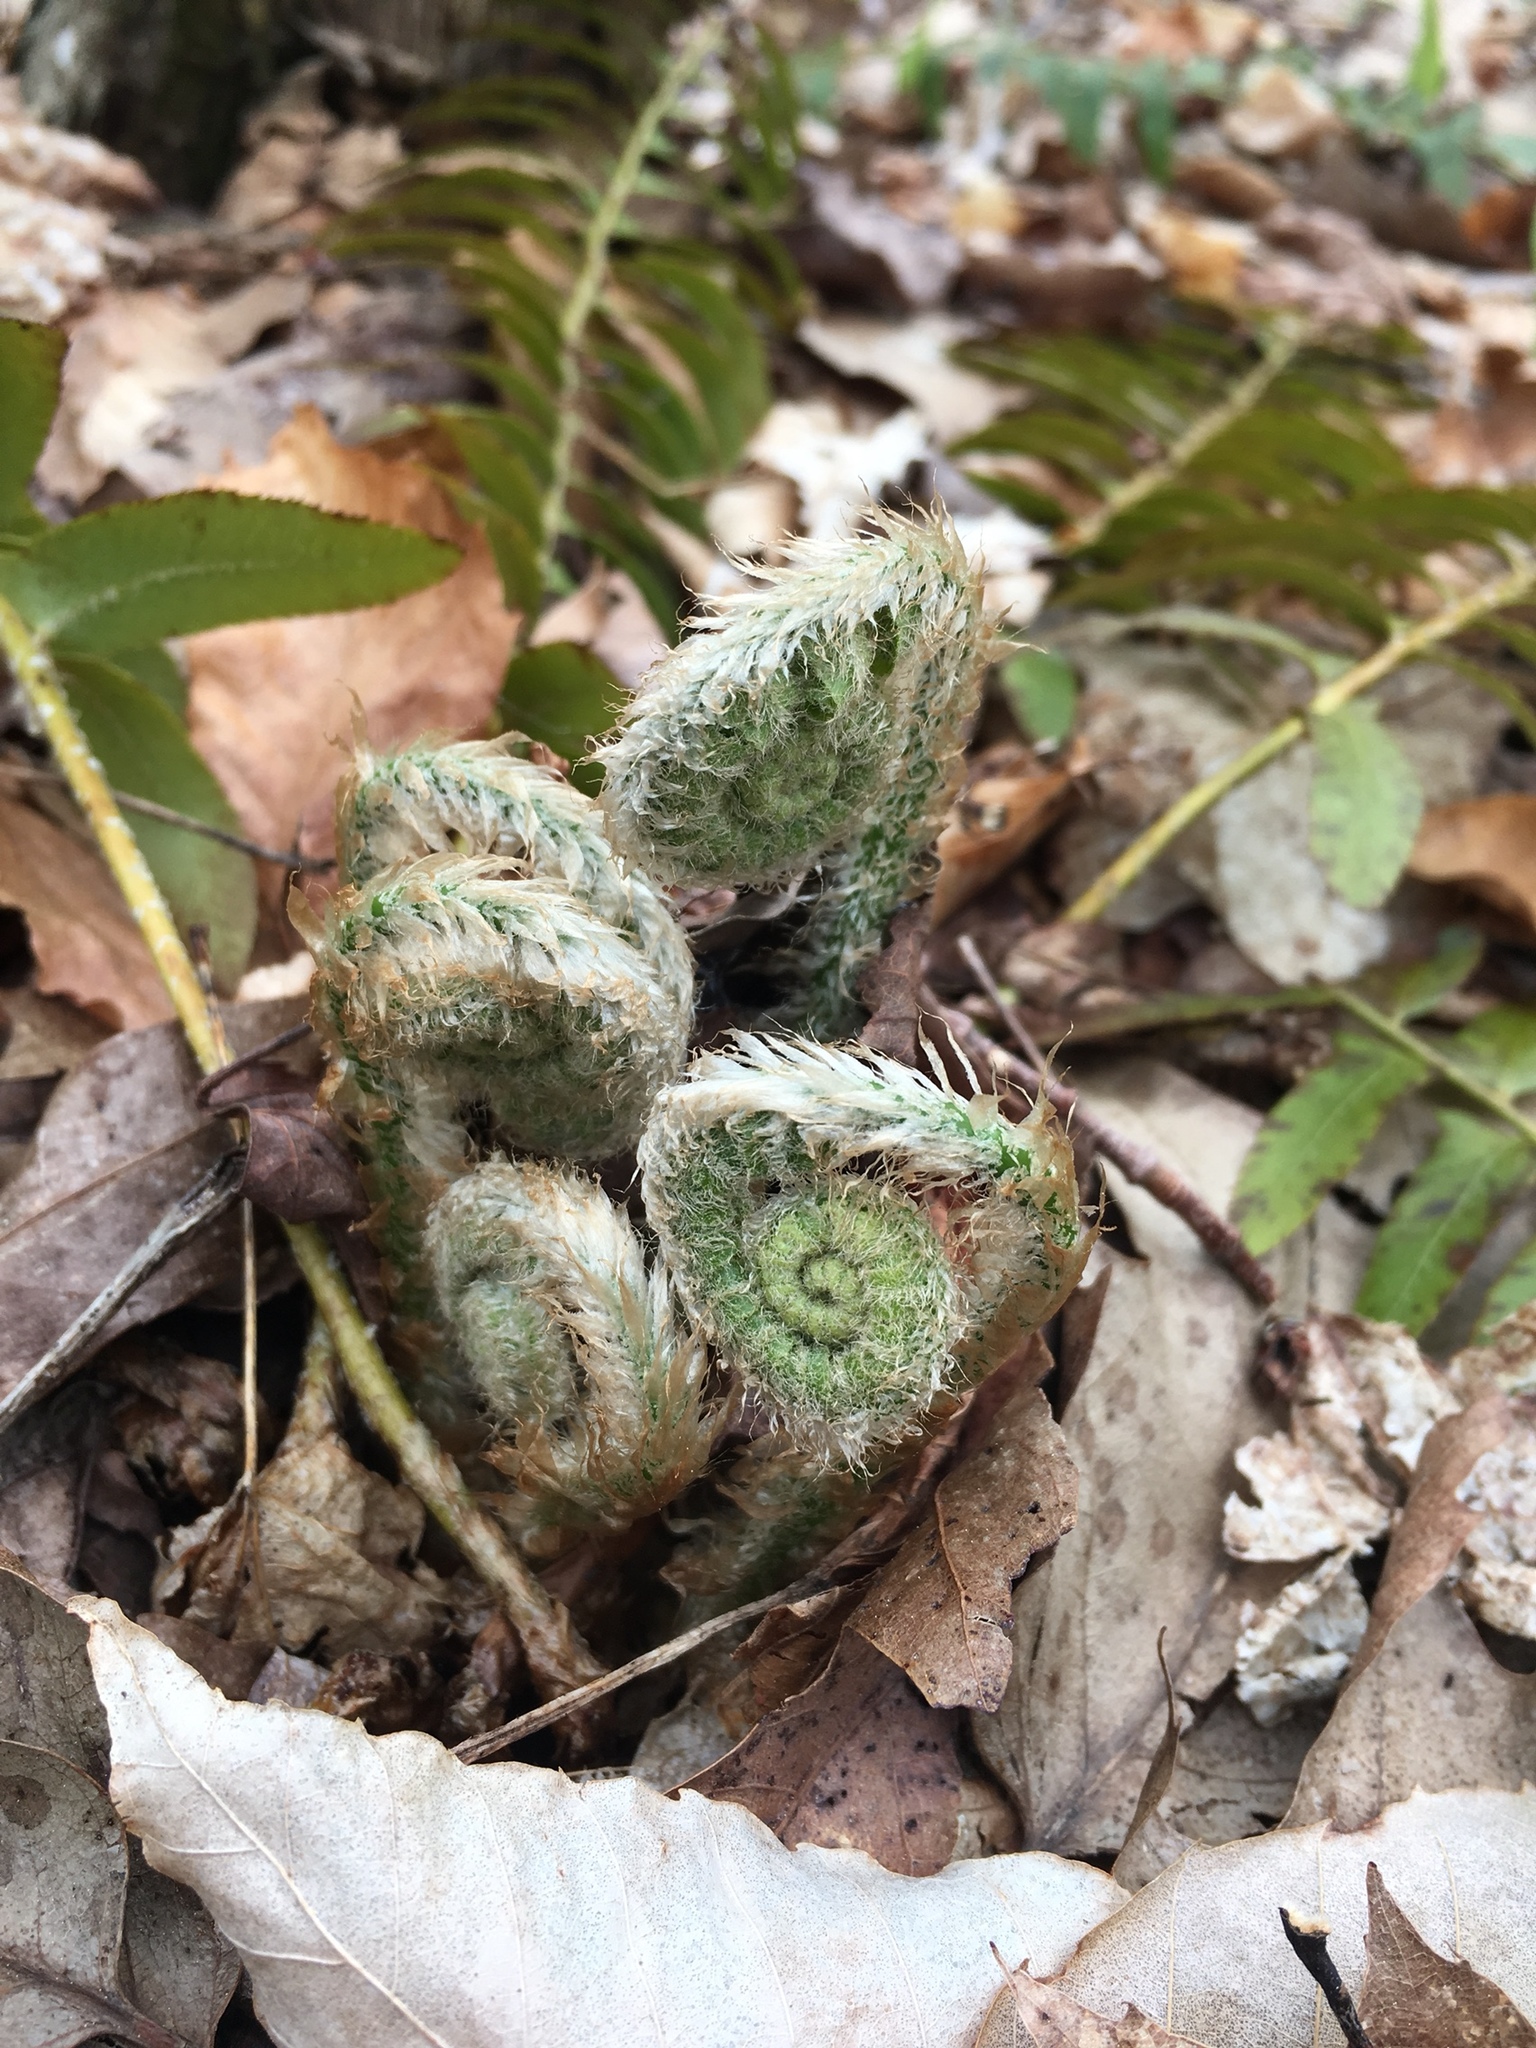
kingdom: Plantae
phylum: Tracheophyta
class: Polypodiopsida
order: Polypodiales
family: Dryopteridaceae
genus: Polystichum
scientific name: Polystichum acrostichoides
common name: Christmas fern
